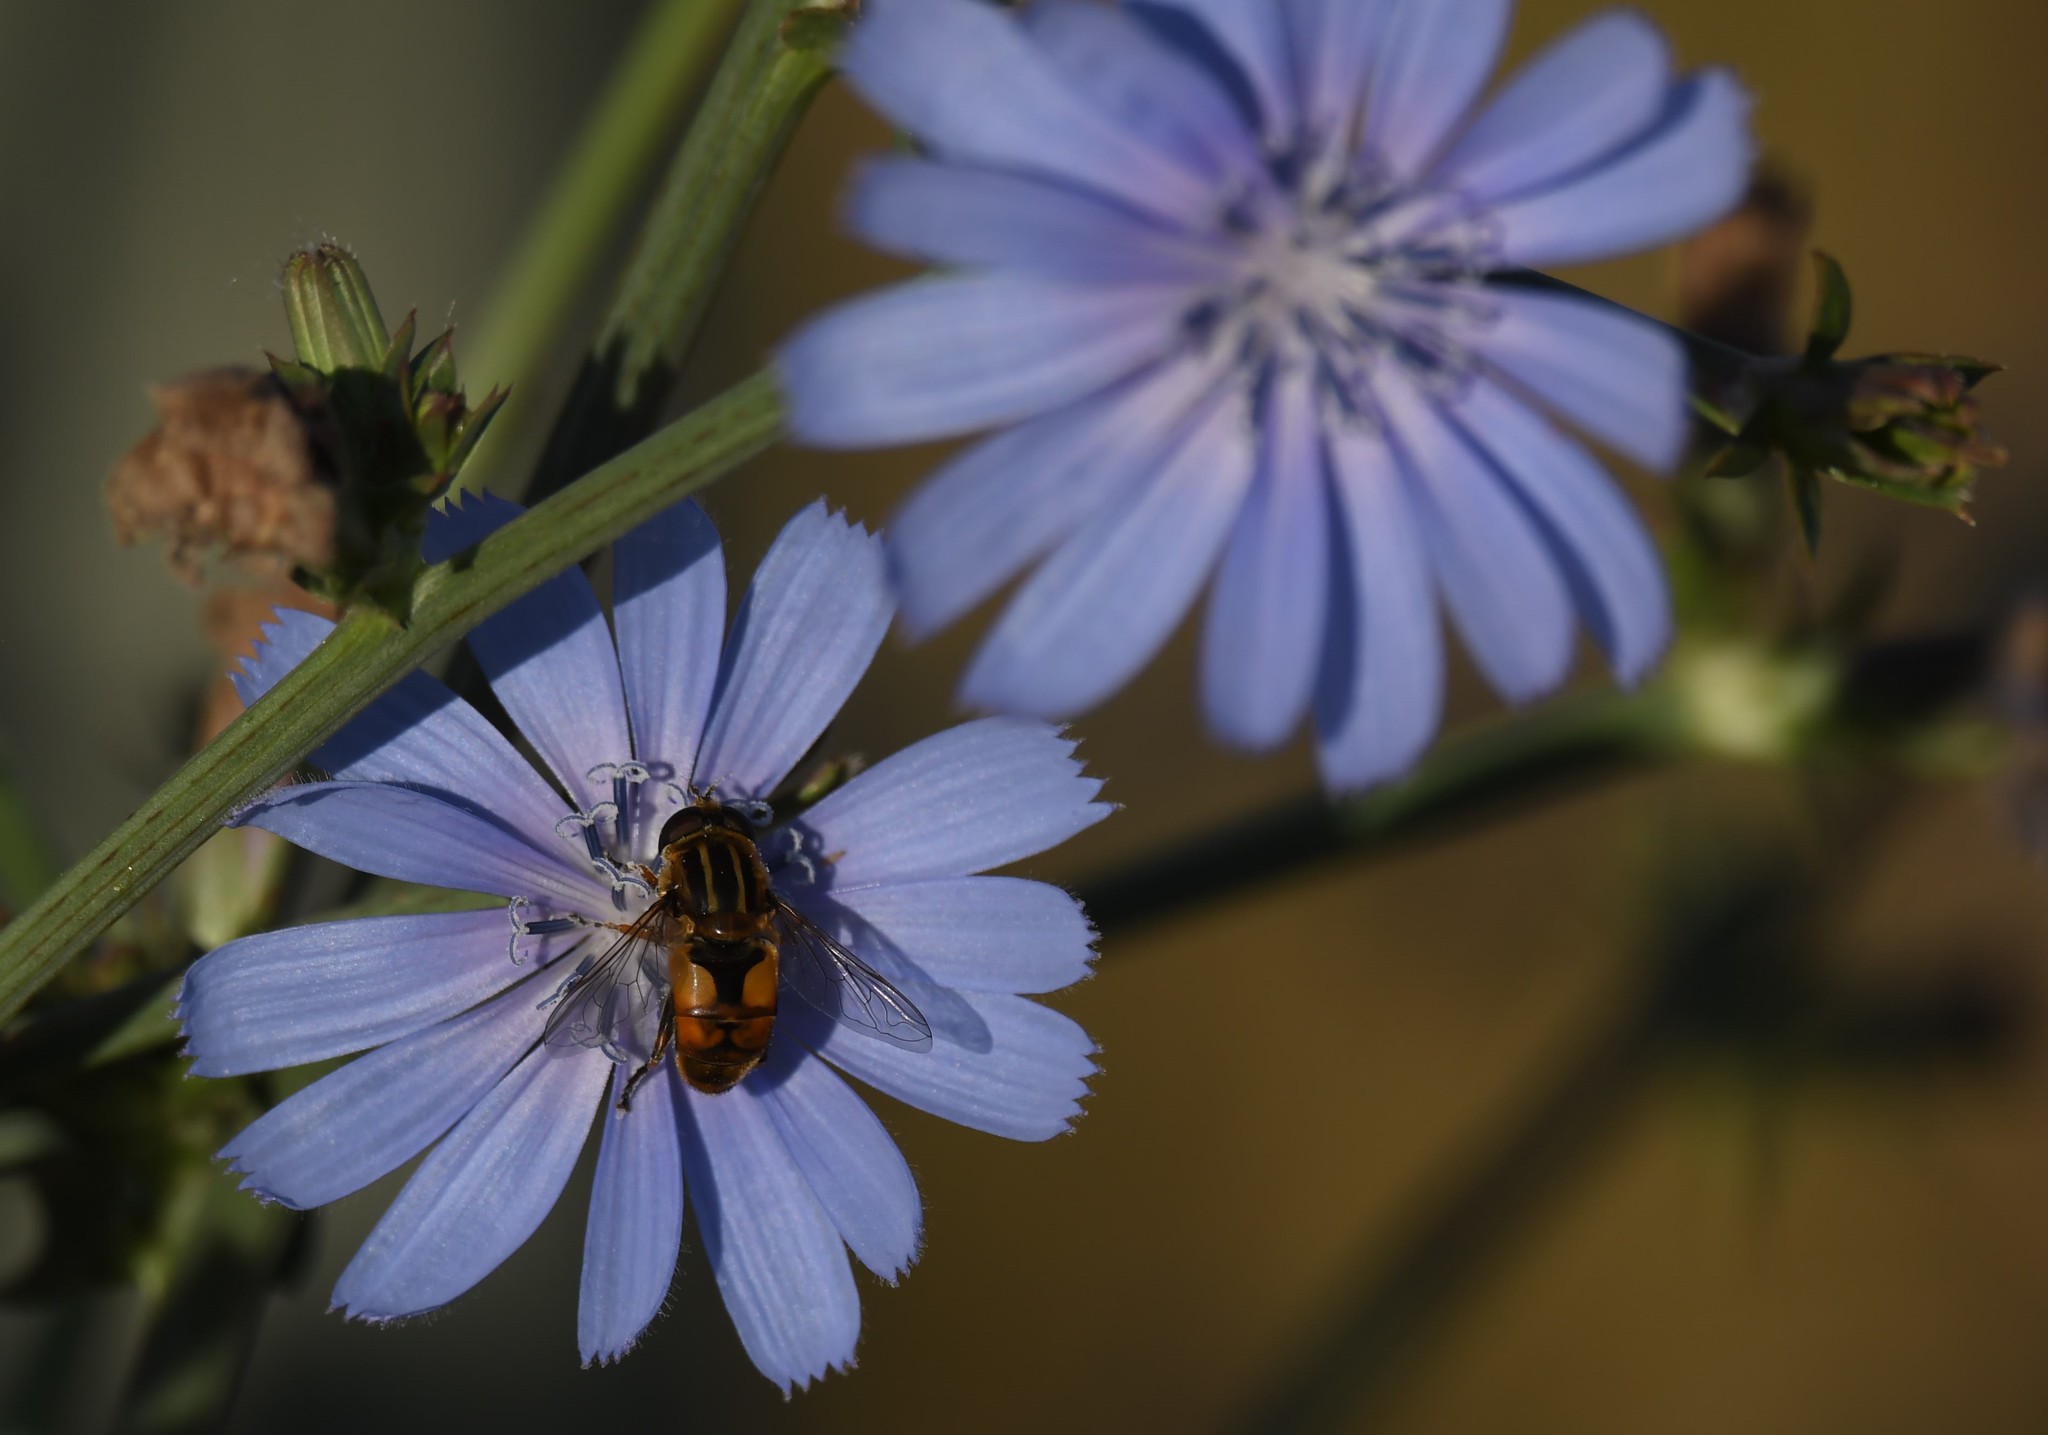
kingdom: Animalia
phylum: Arthropoda
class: Insecta
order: Diptera
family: Syrphidae
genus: Helophilus
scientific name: Helophilus hybridus
